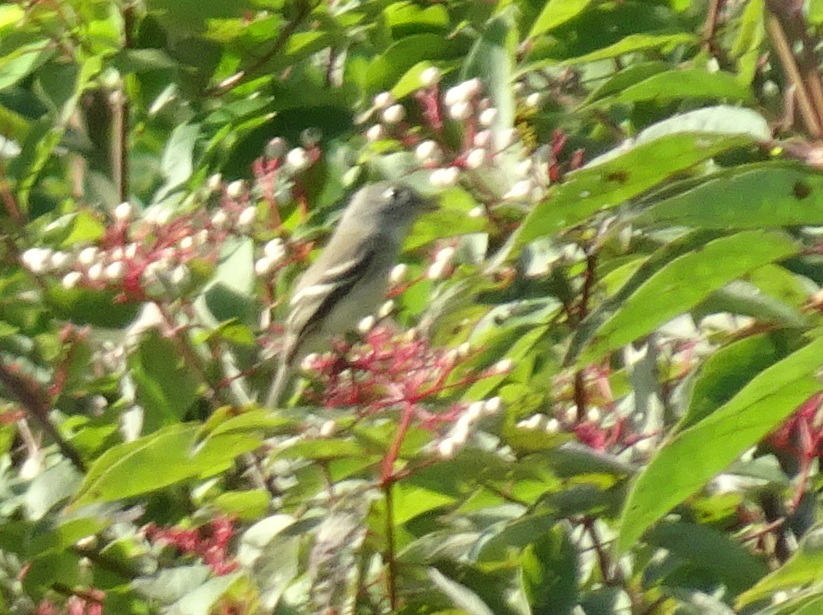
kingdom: Animalia
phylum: Chordata
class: Aves
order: Passeriformes
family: Tyrannidae
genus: Empidonax
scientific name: Empidonax minimus
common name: Least flycatcher
